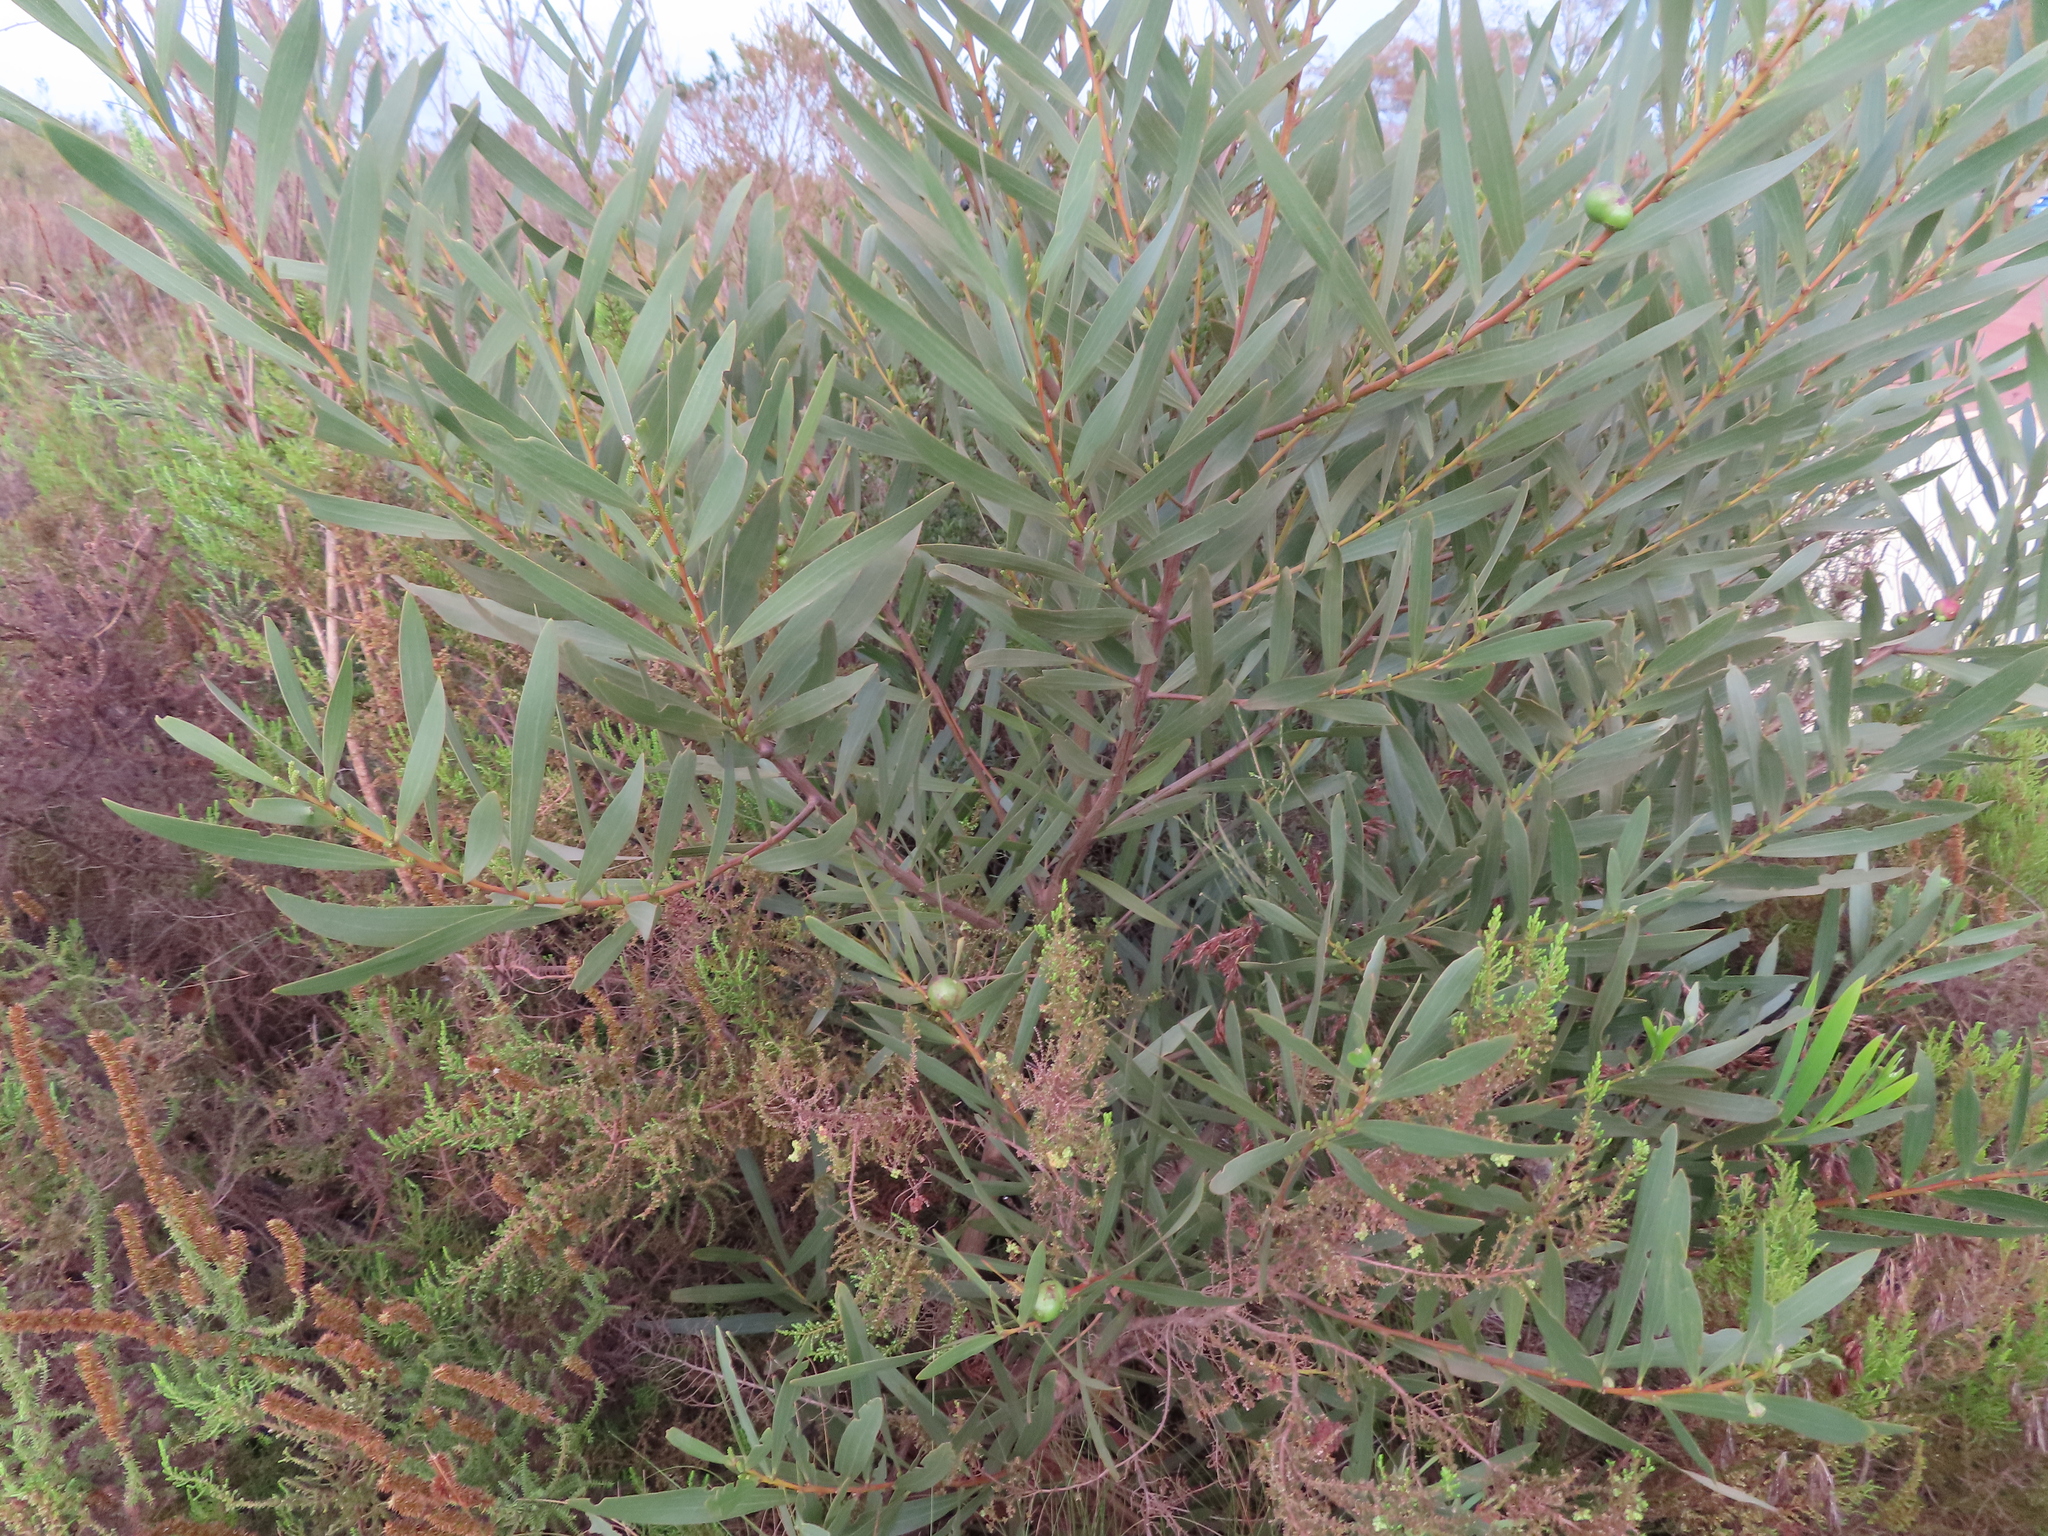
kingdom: Plantae
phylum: Tracheophyta
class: Magnoliopsida
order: Fabales
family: Fabaceae
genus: Acacia
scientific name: Acacia longifolia
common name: Sydney golden wattle
